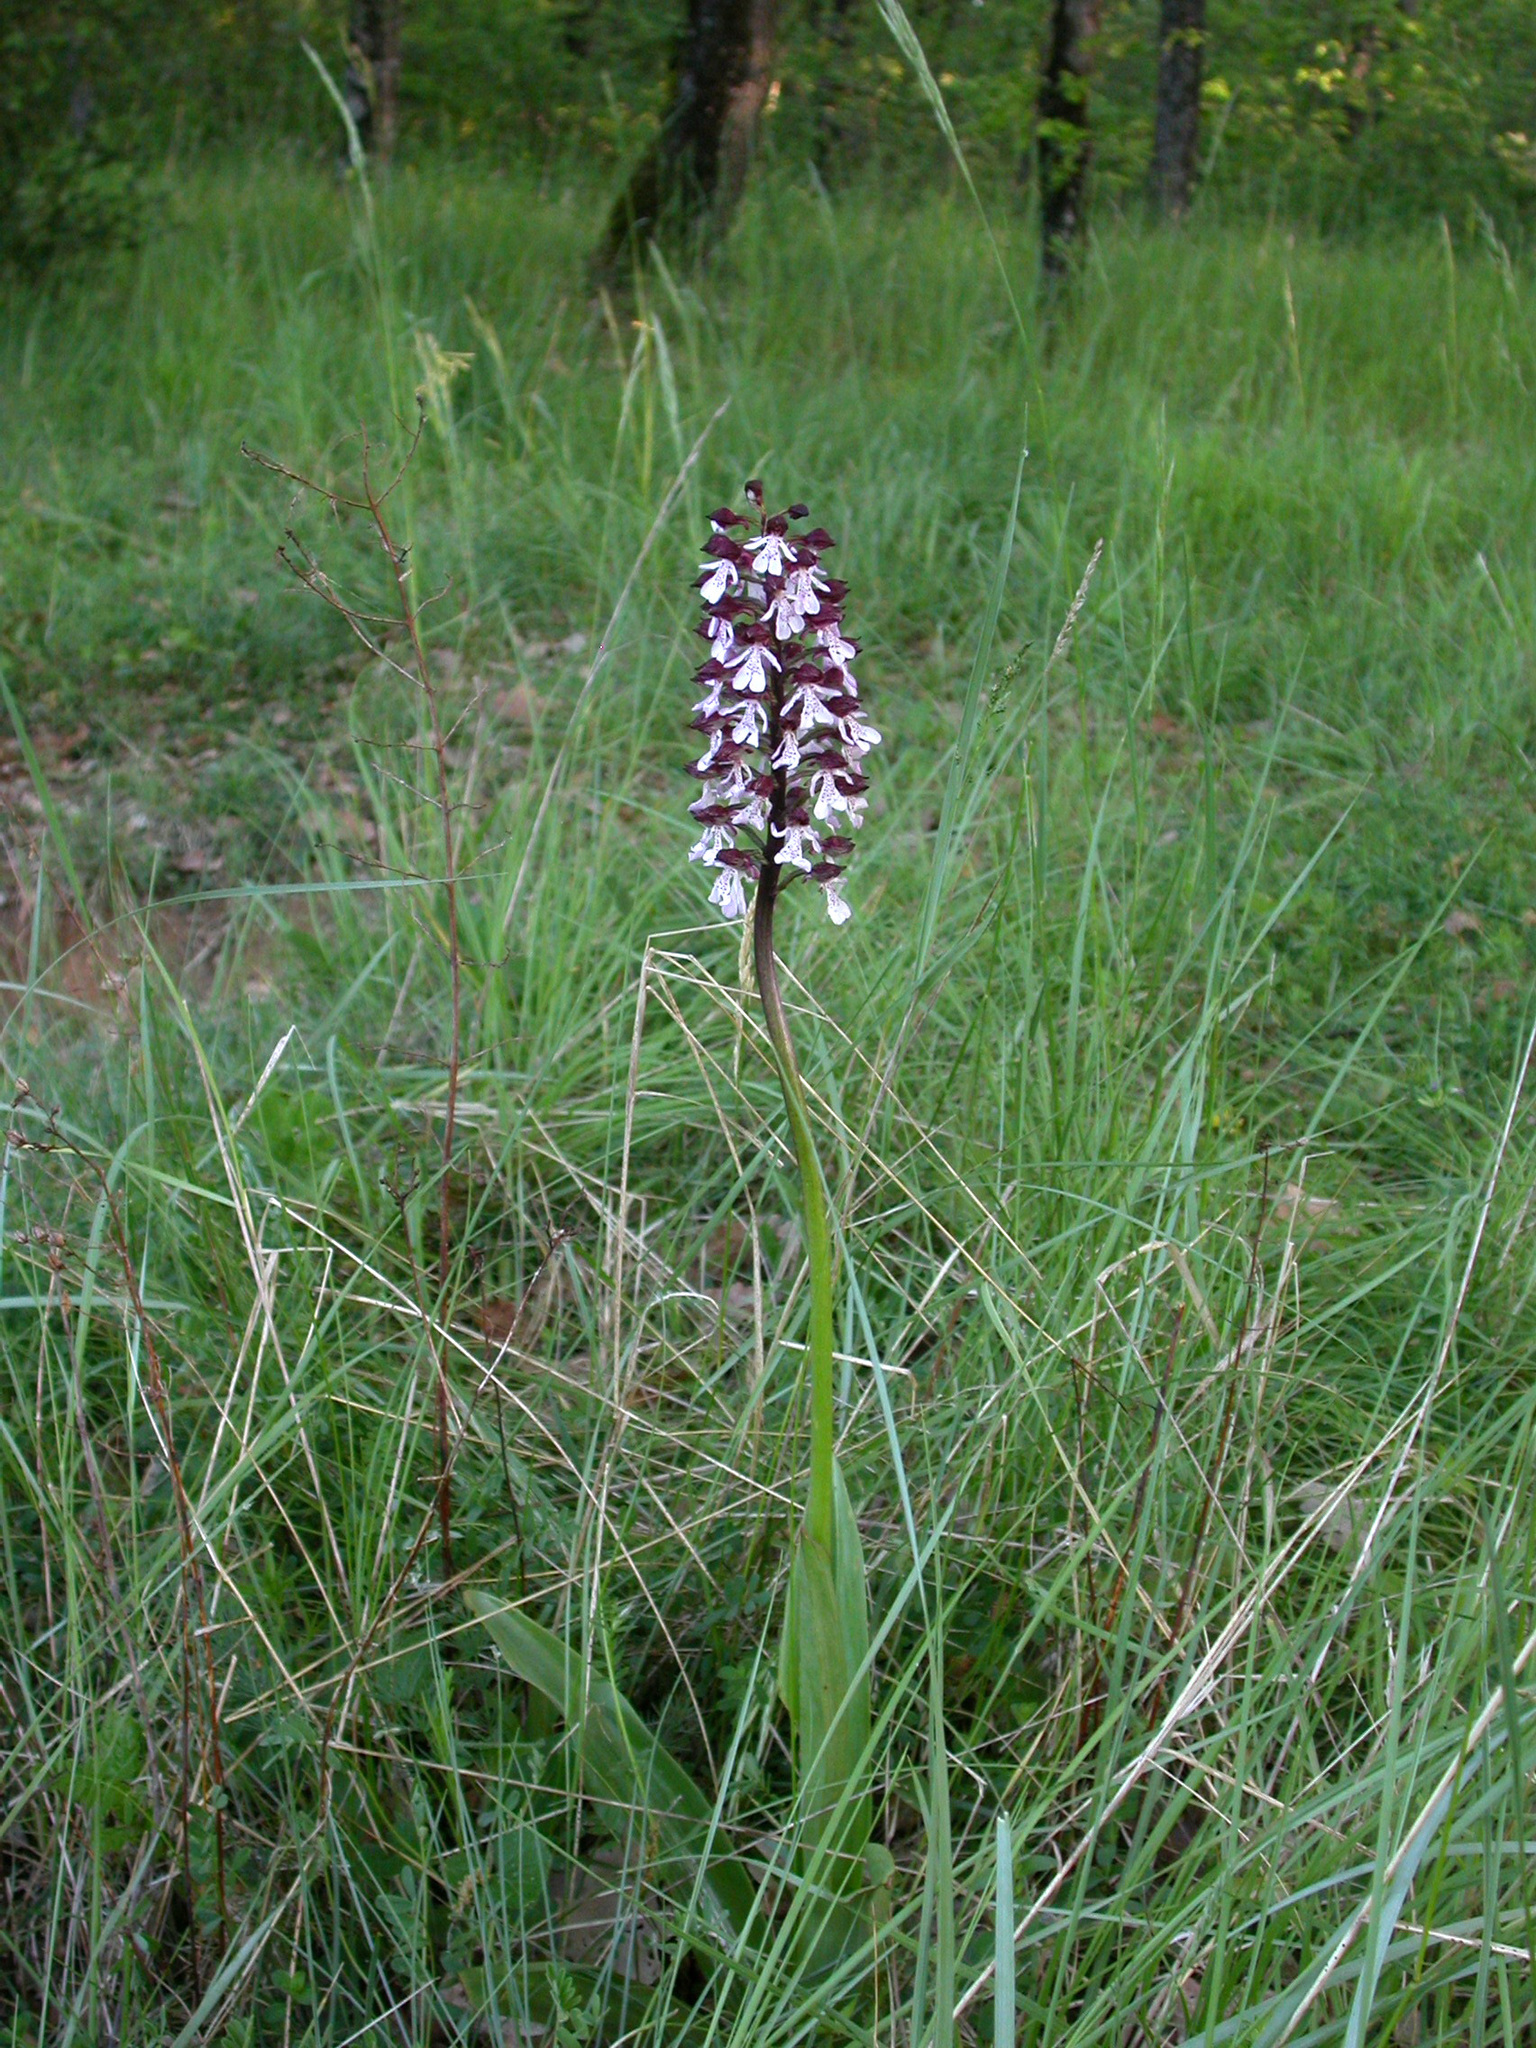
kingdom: Plantae
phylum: Tracheophyta
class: Liliopsida
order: Asparagales
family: Orchidaceae
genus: Orchis
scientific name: Orchis purpurea
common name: Lady orchid
